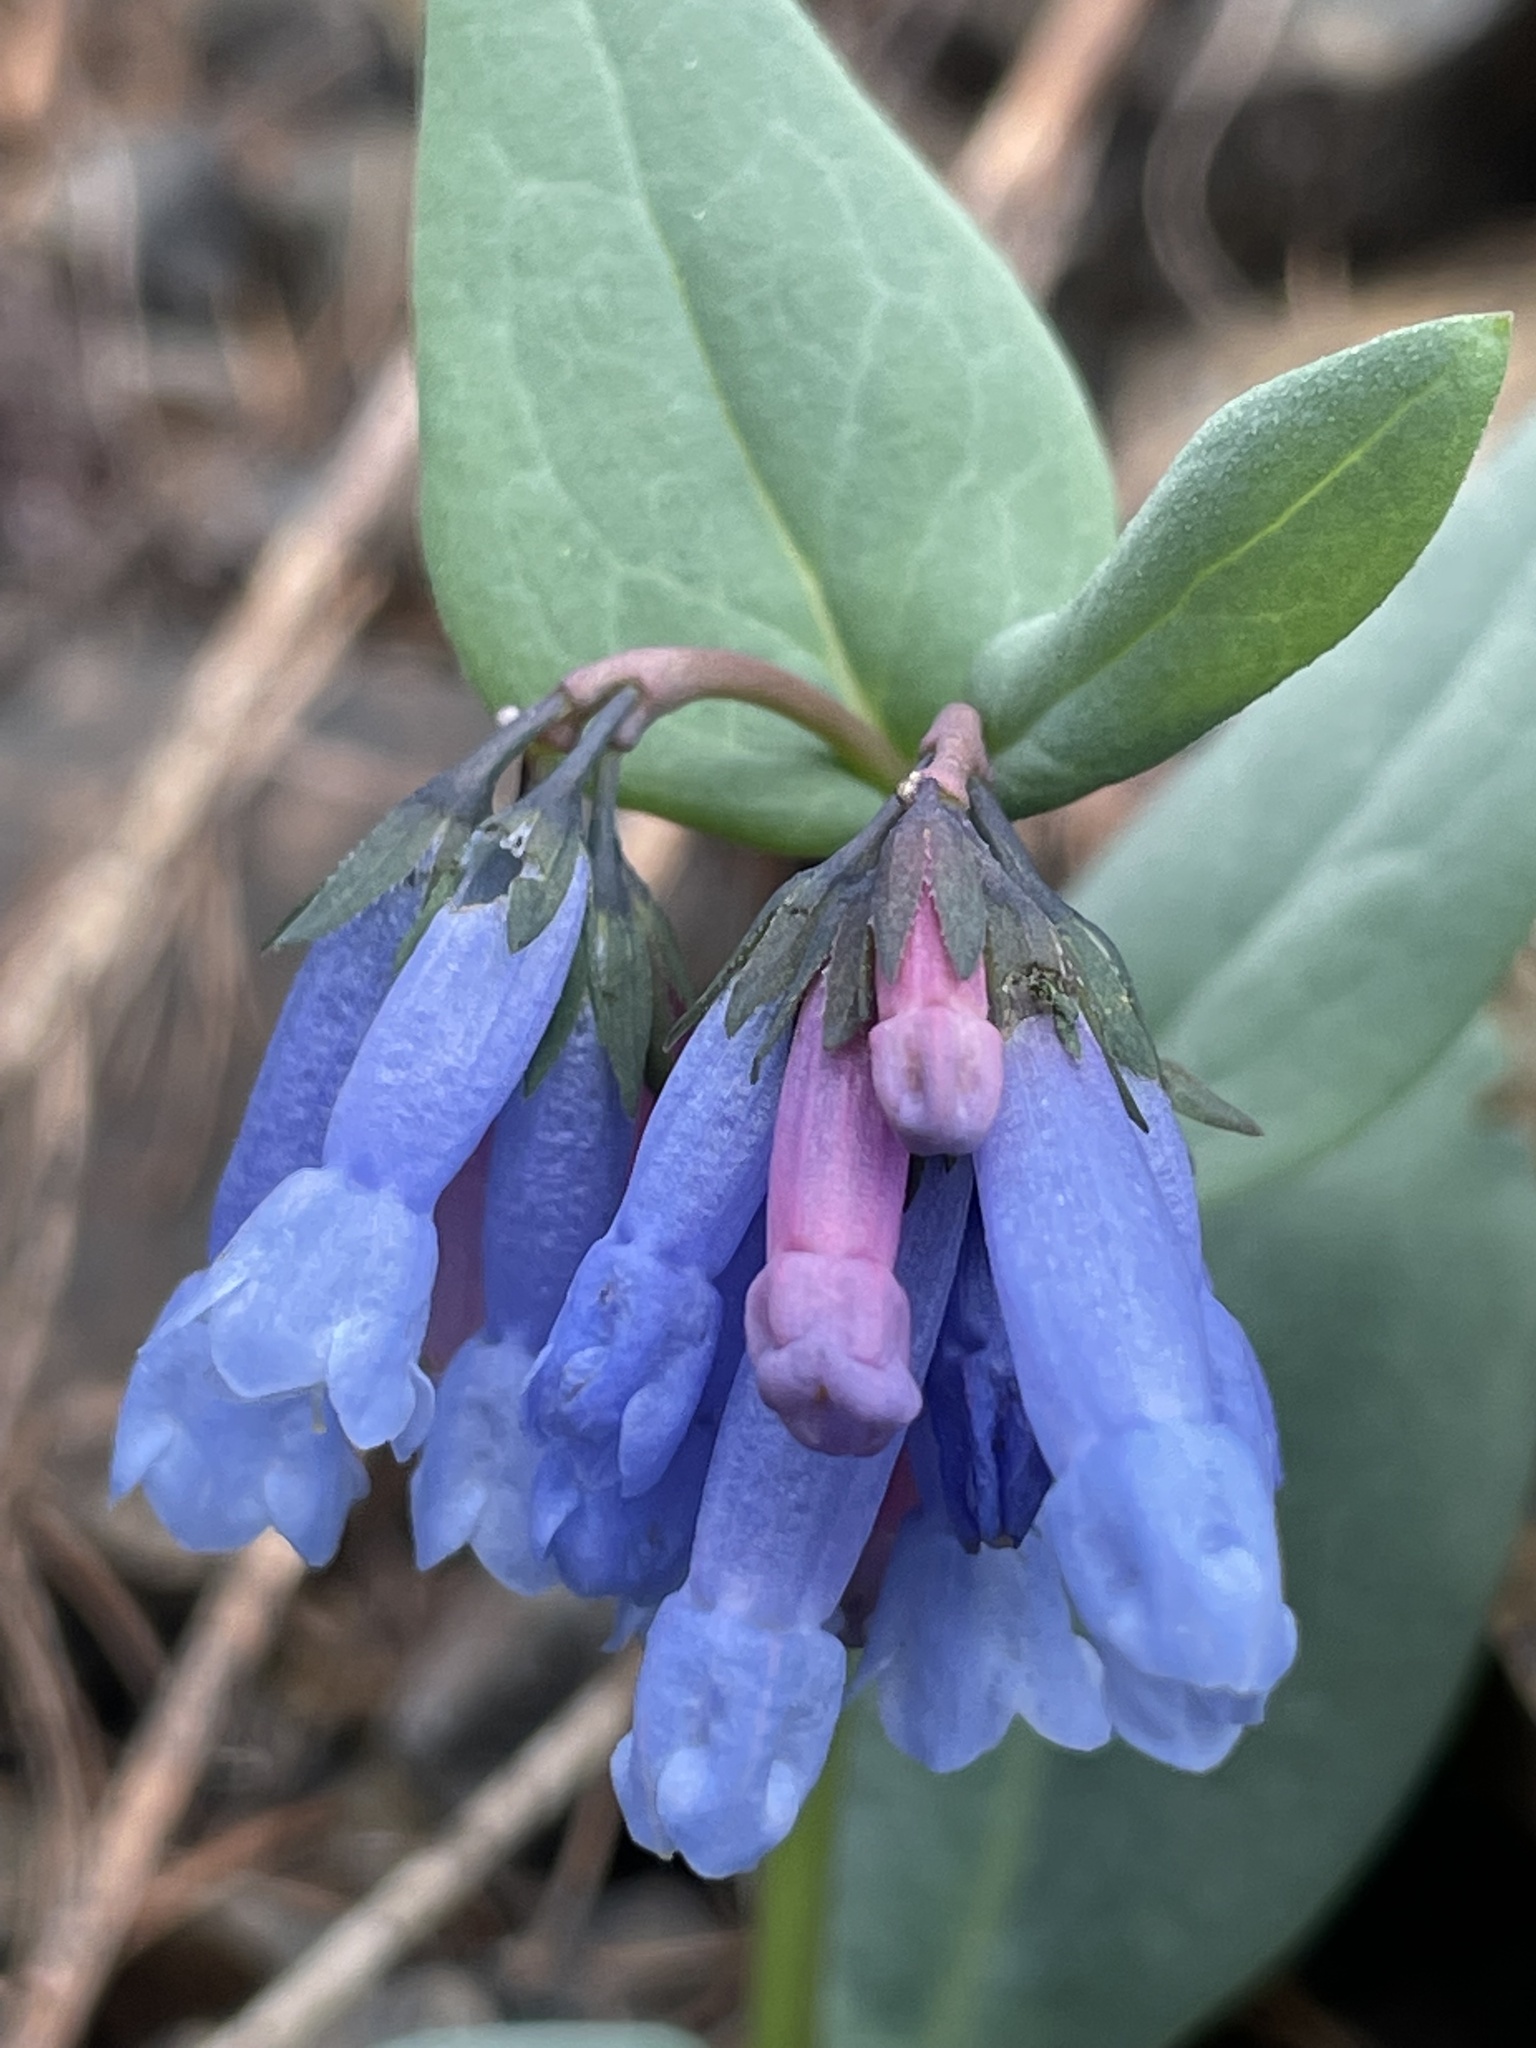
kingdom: Plantae
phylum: Tracheophyta
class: Magnoliopsida
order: Boraginales
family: Boraginaceae
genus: Mertensia
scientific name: Mertensia longiflora
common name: Large-flowered bluebells
